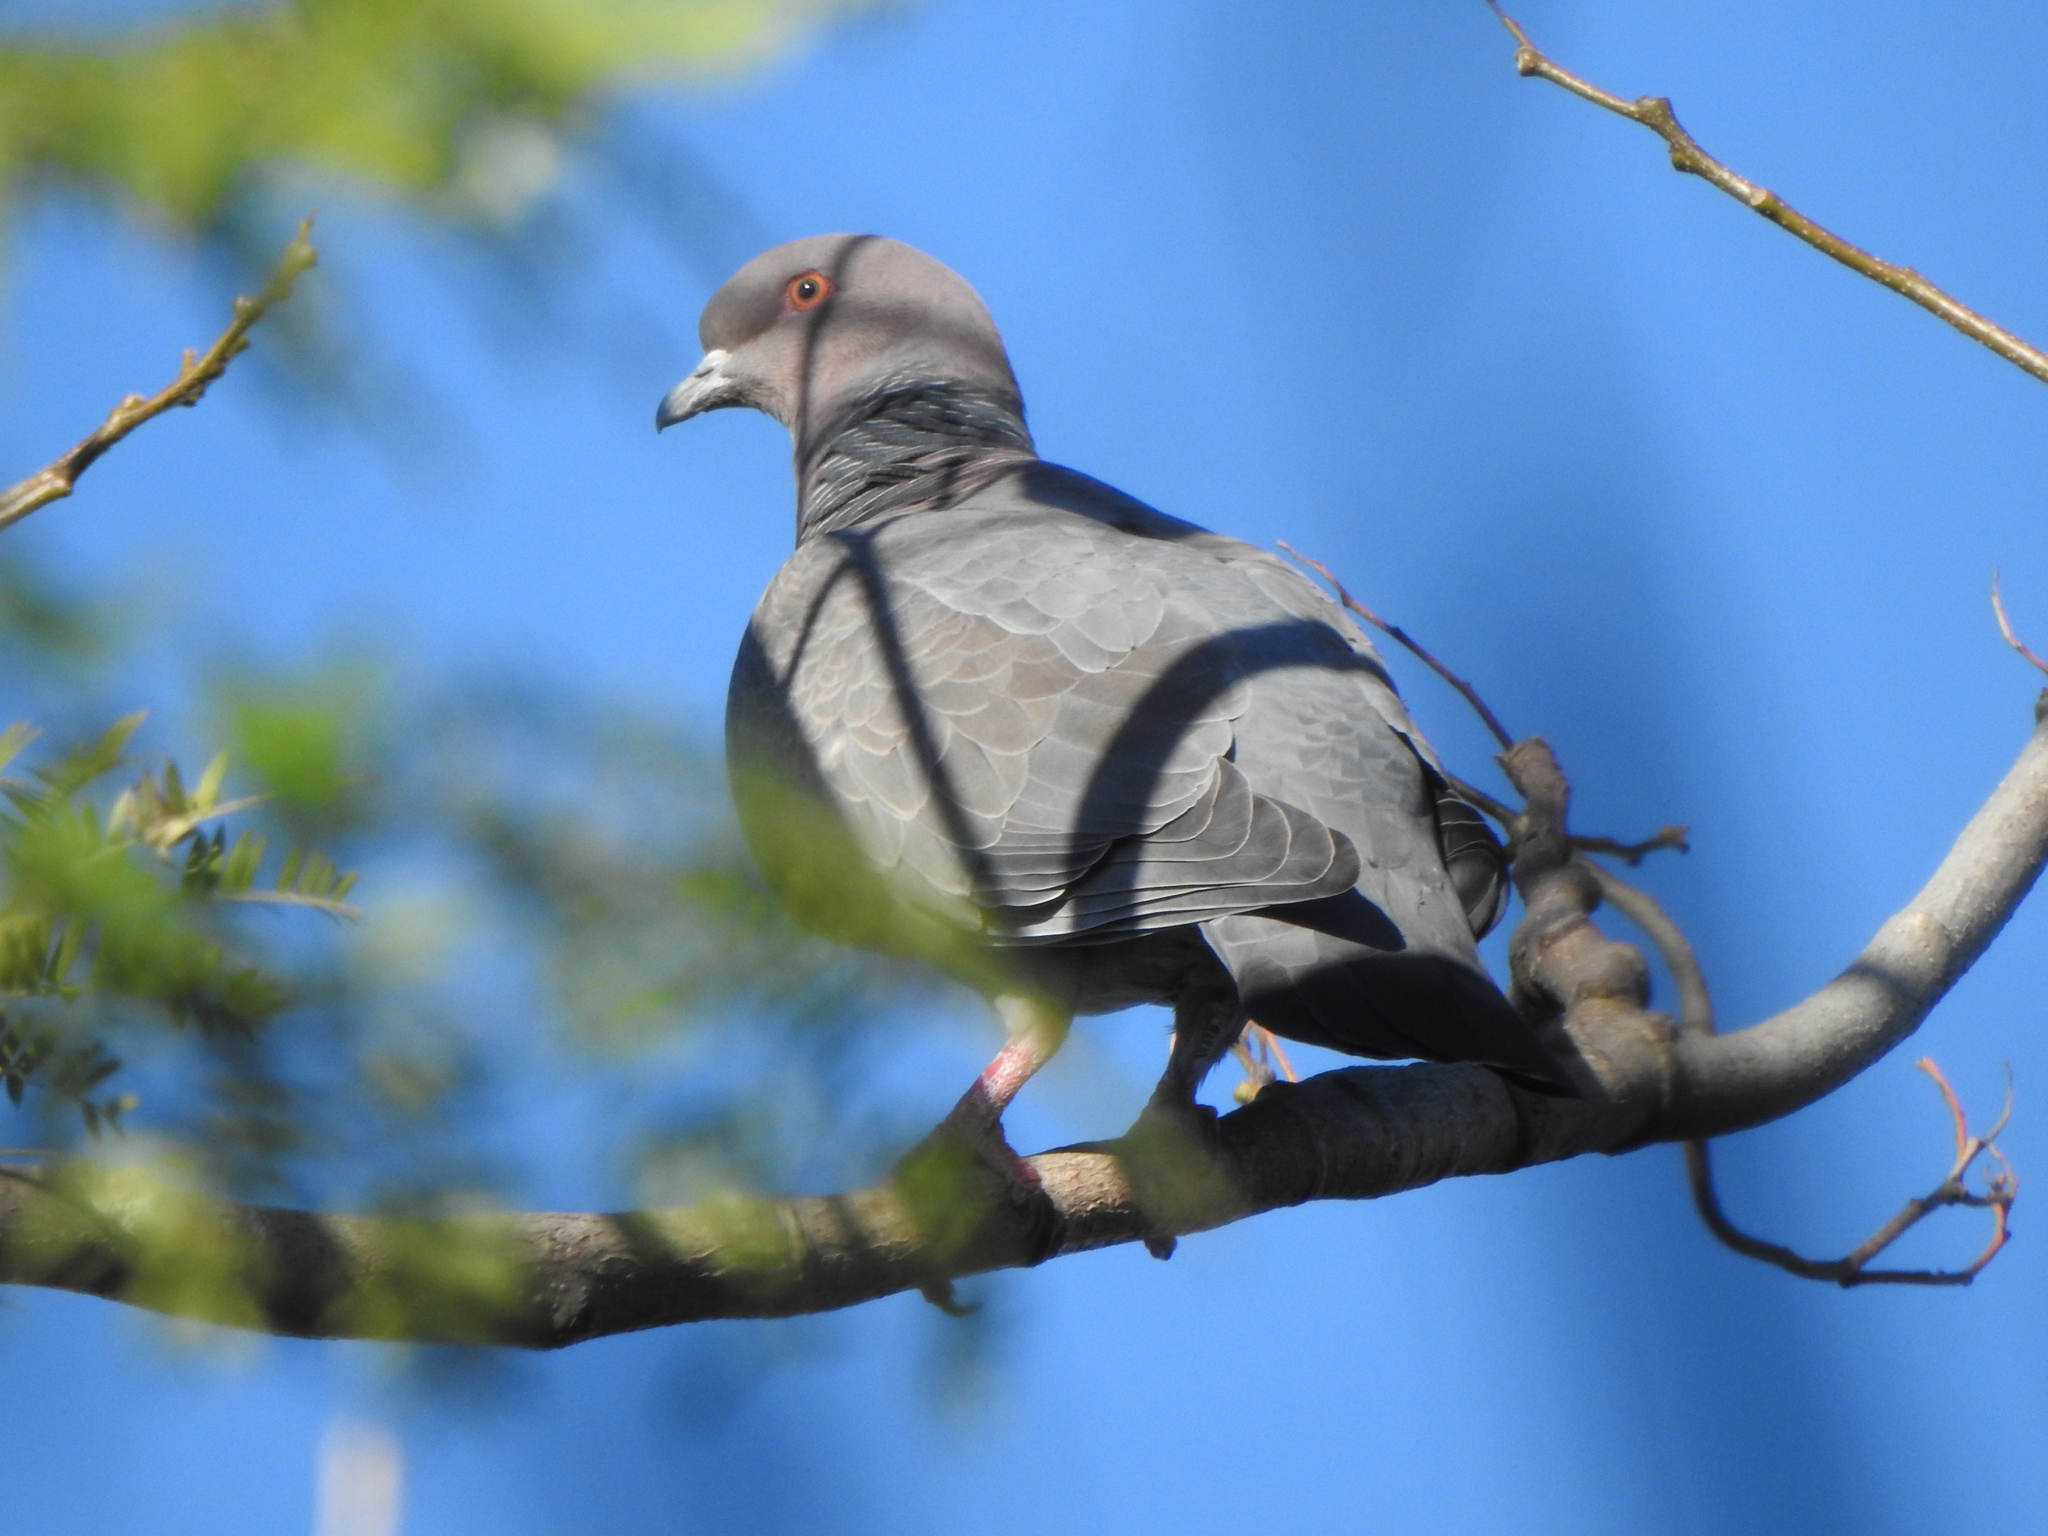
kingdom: Animalia
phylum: Chordata
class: Aves
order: Columbiformes
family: Columbidae
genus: Patagioenas
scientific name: Patagioenas picazuro
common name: Picazuro pigeon
